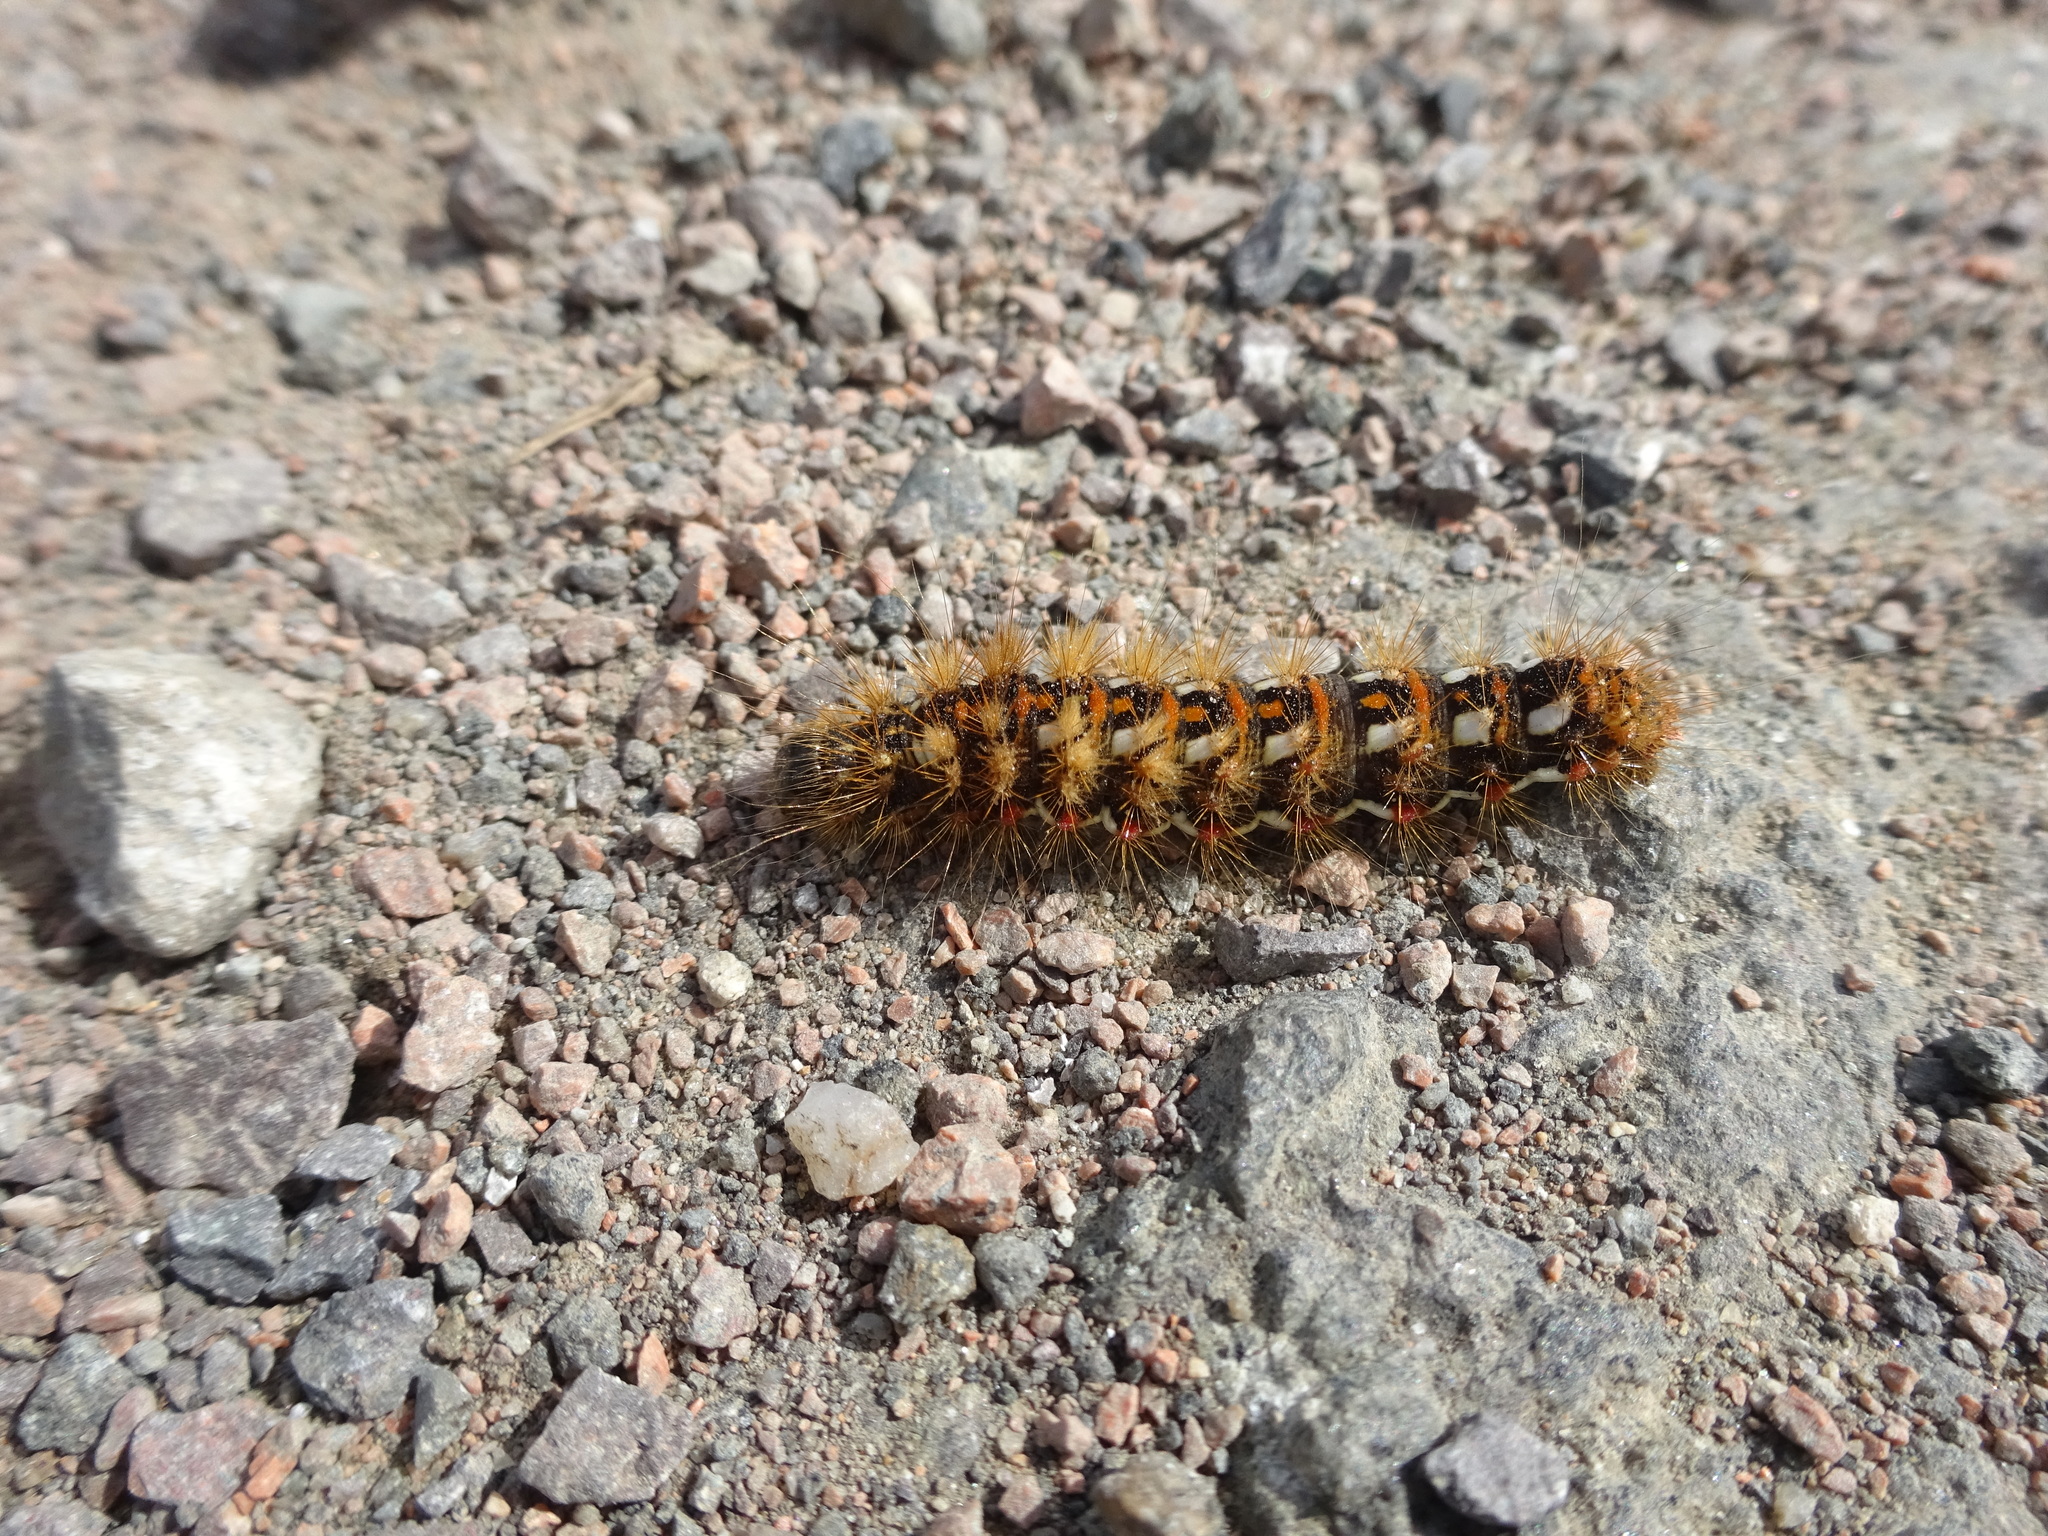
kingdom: Animalia
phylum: Arthropoda
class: Insecta
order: Lepidoptera
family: Noctuidae
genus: Acronicta
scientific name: Acronicta rumicis
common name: Knot grass
